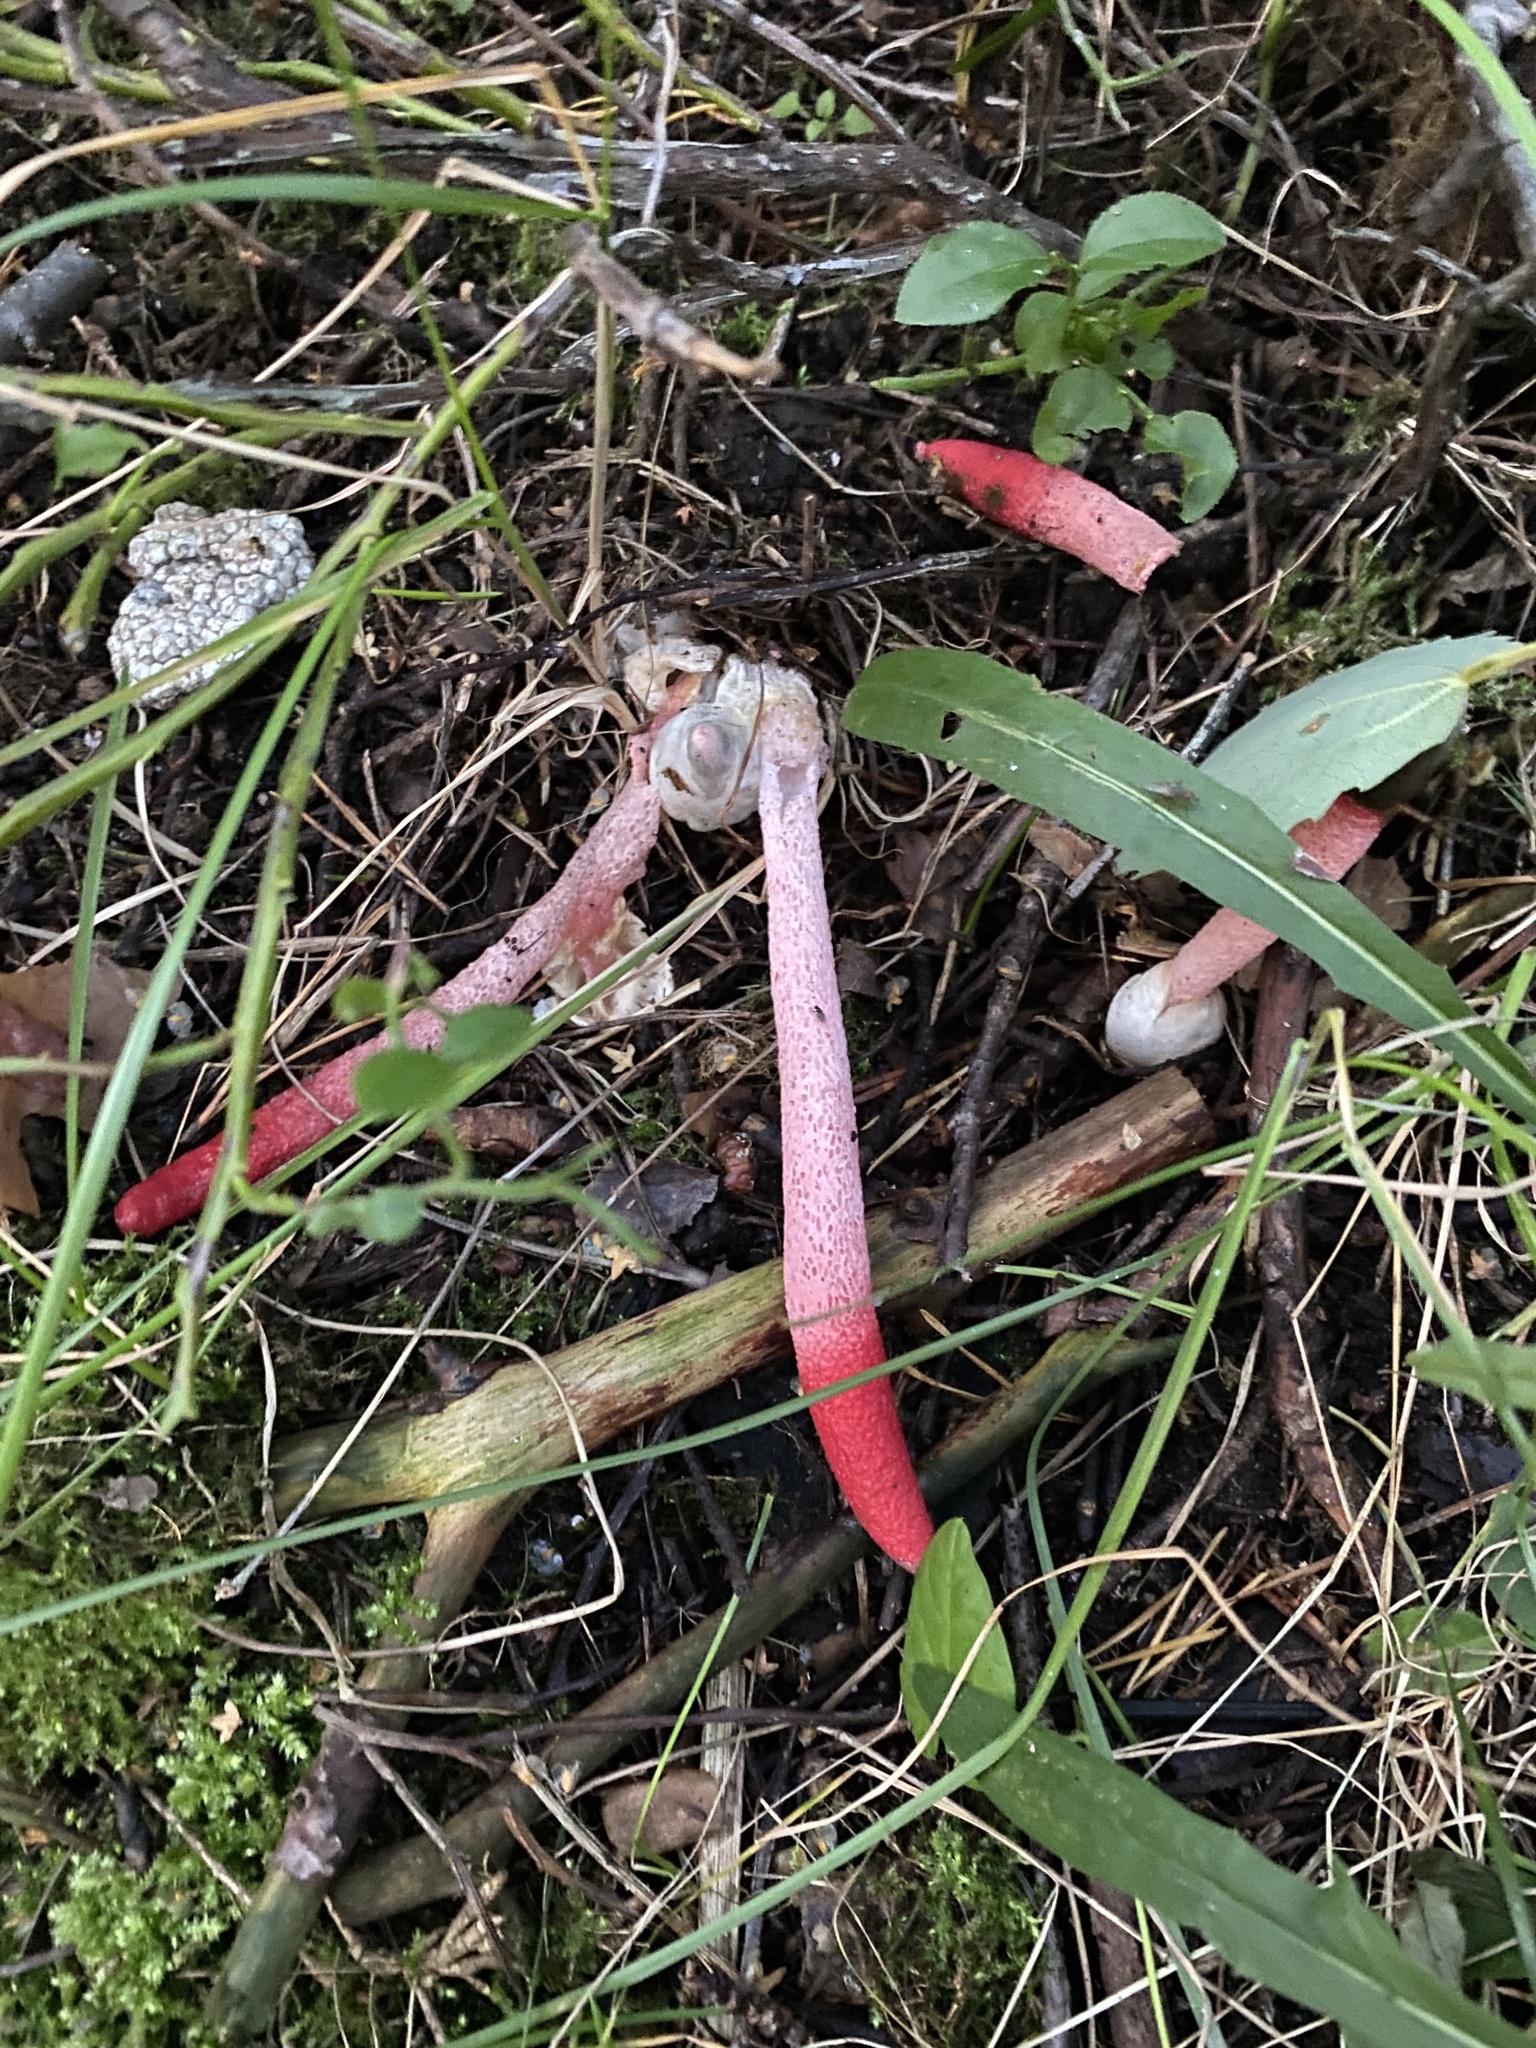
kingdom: Fungi
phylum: Basidiomycota
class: Agaricomycetes
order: Phallales
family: Phallaceae
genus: Mutinus
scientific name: Mutinus ravenelii
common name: Red stinkhorn
